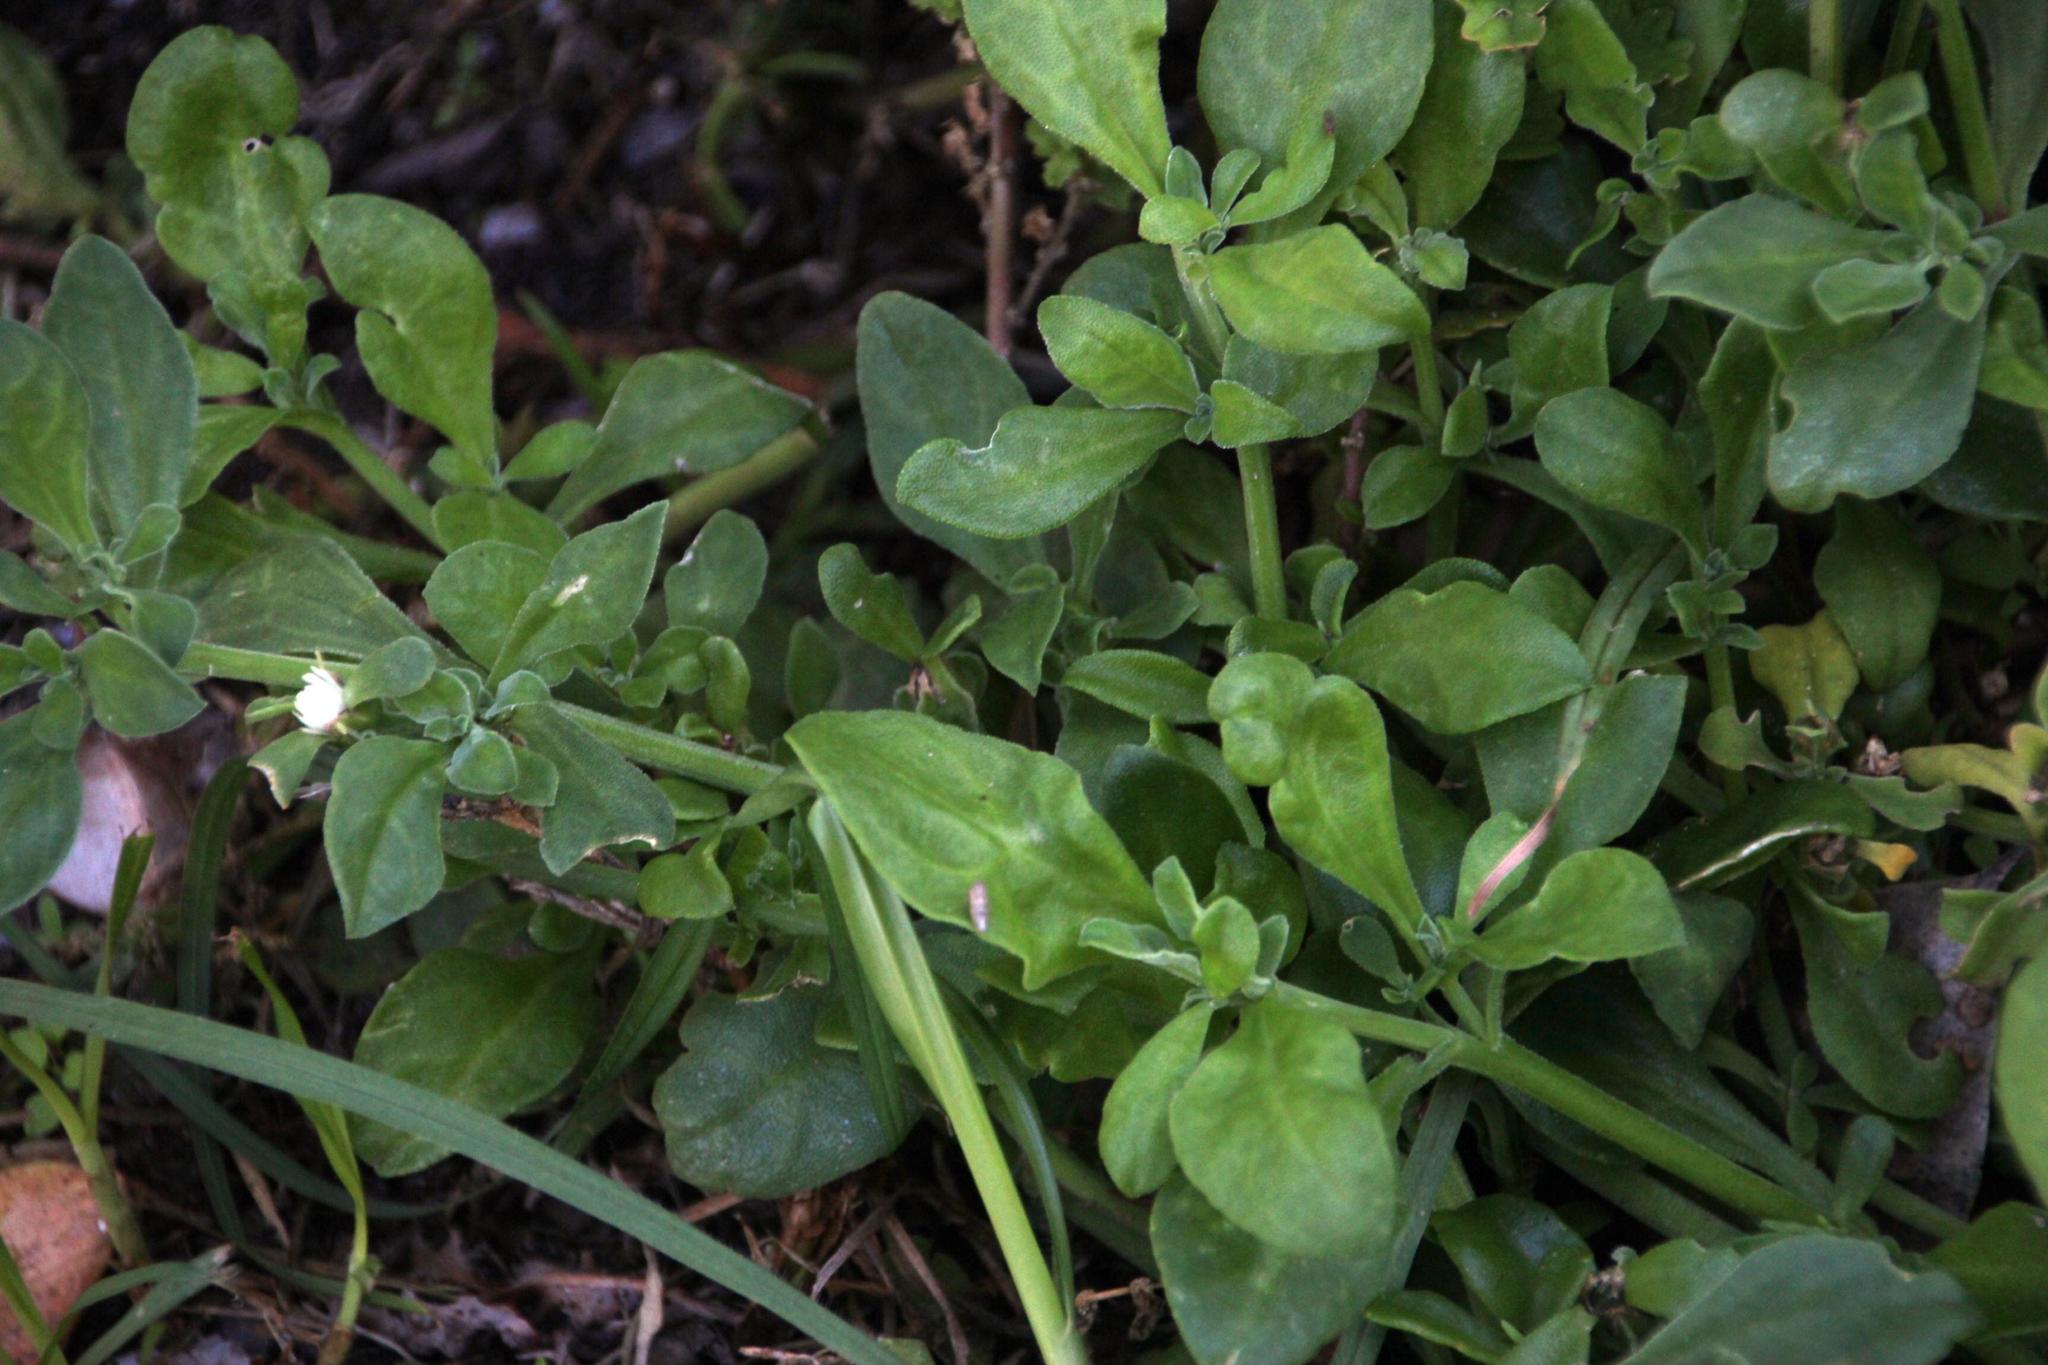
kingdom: Plantae
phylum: Tracheophyta
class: Magnoliopsida
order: Caryophyllales
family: Aizoaceae
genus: Mesembryanthemum
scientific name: Mesembryanthemum cordifolium
